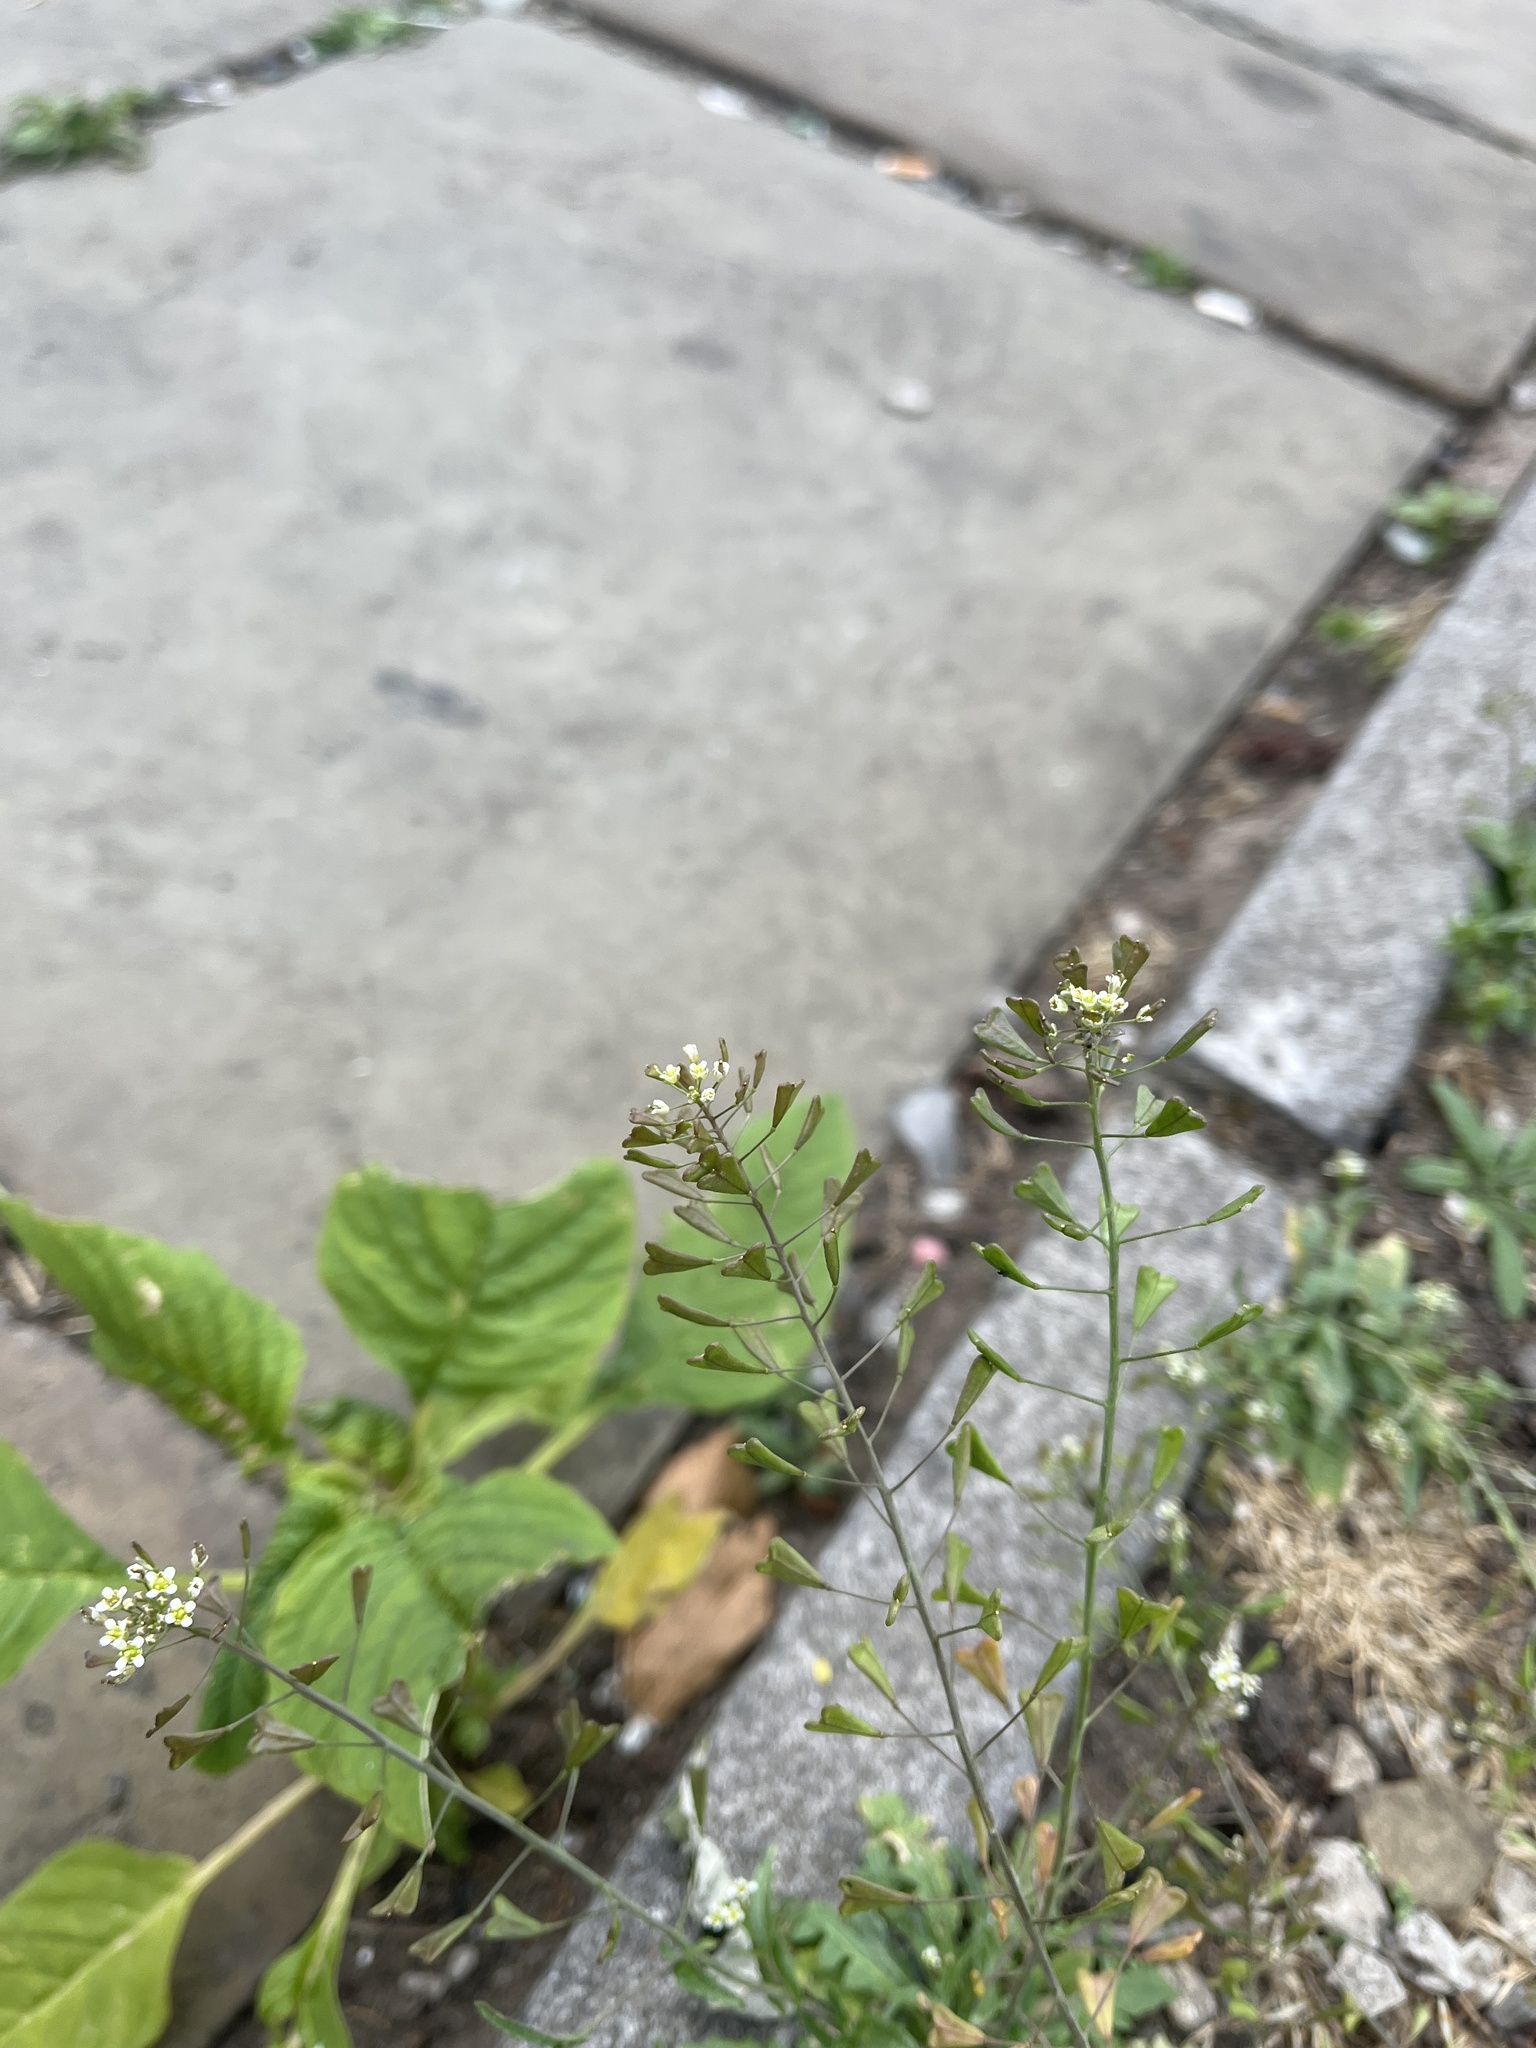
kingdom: Plantae
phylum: Tracheophyta
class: Magnoliopsida
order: Brassicales
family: Brassicaceae
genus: Capsella
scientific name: Capsella bursa-pastoris
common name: Shepherd's purse
